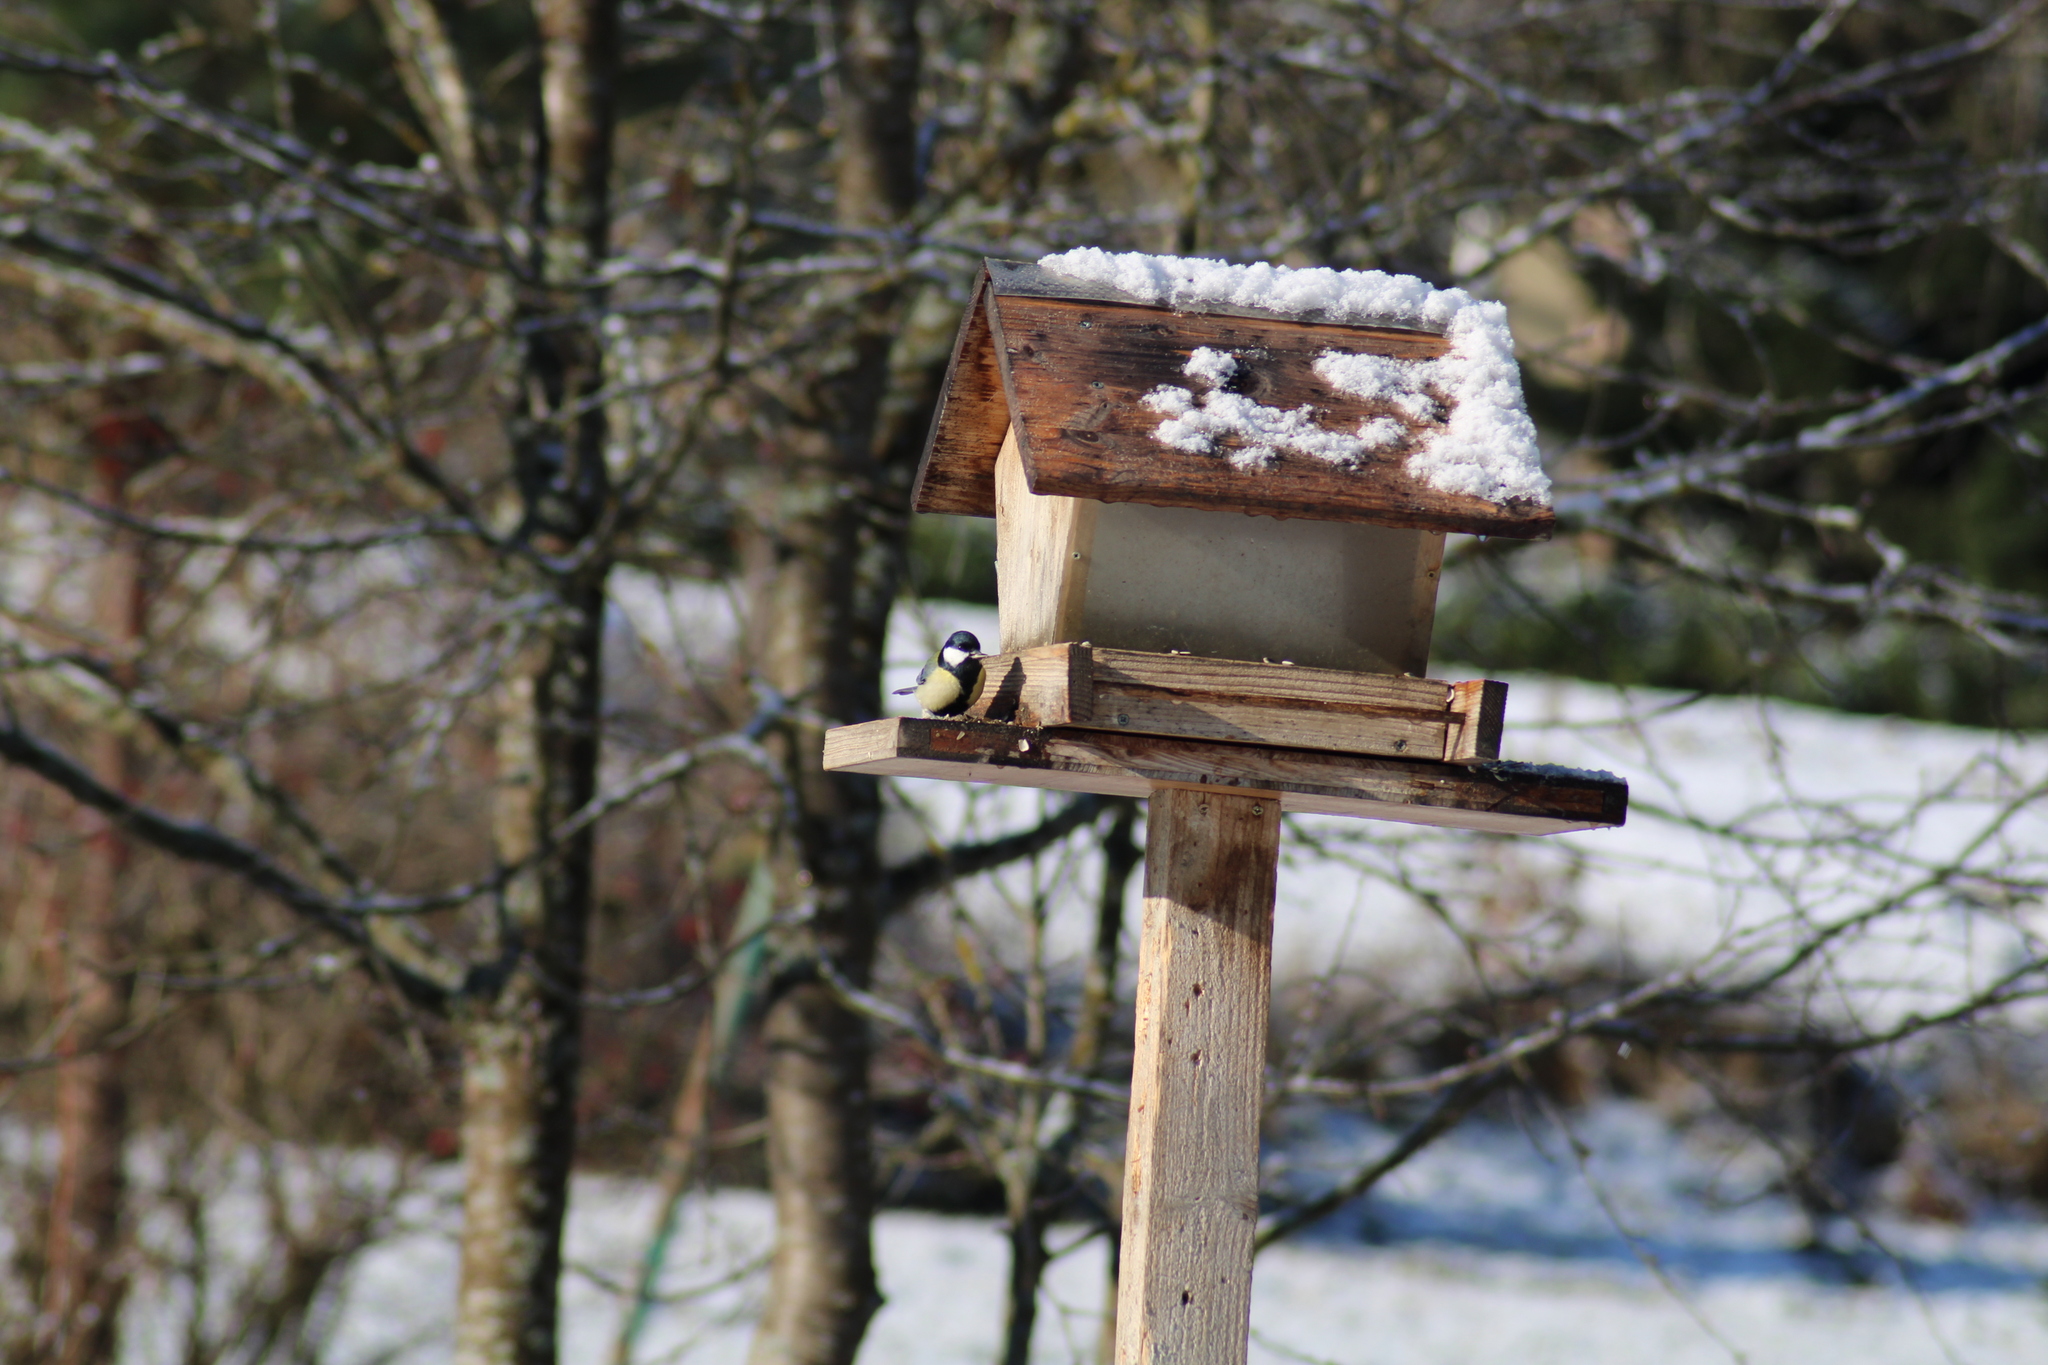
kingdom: Animalia
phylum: Chordata
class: Aves
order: Passeriformes
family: Paridae
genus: Parus
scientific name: Parus major
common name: Great tit
